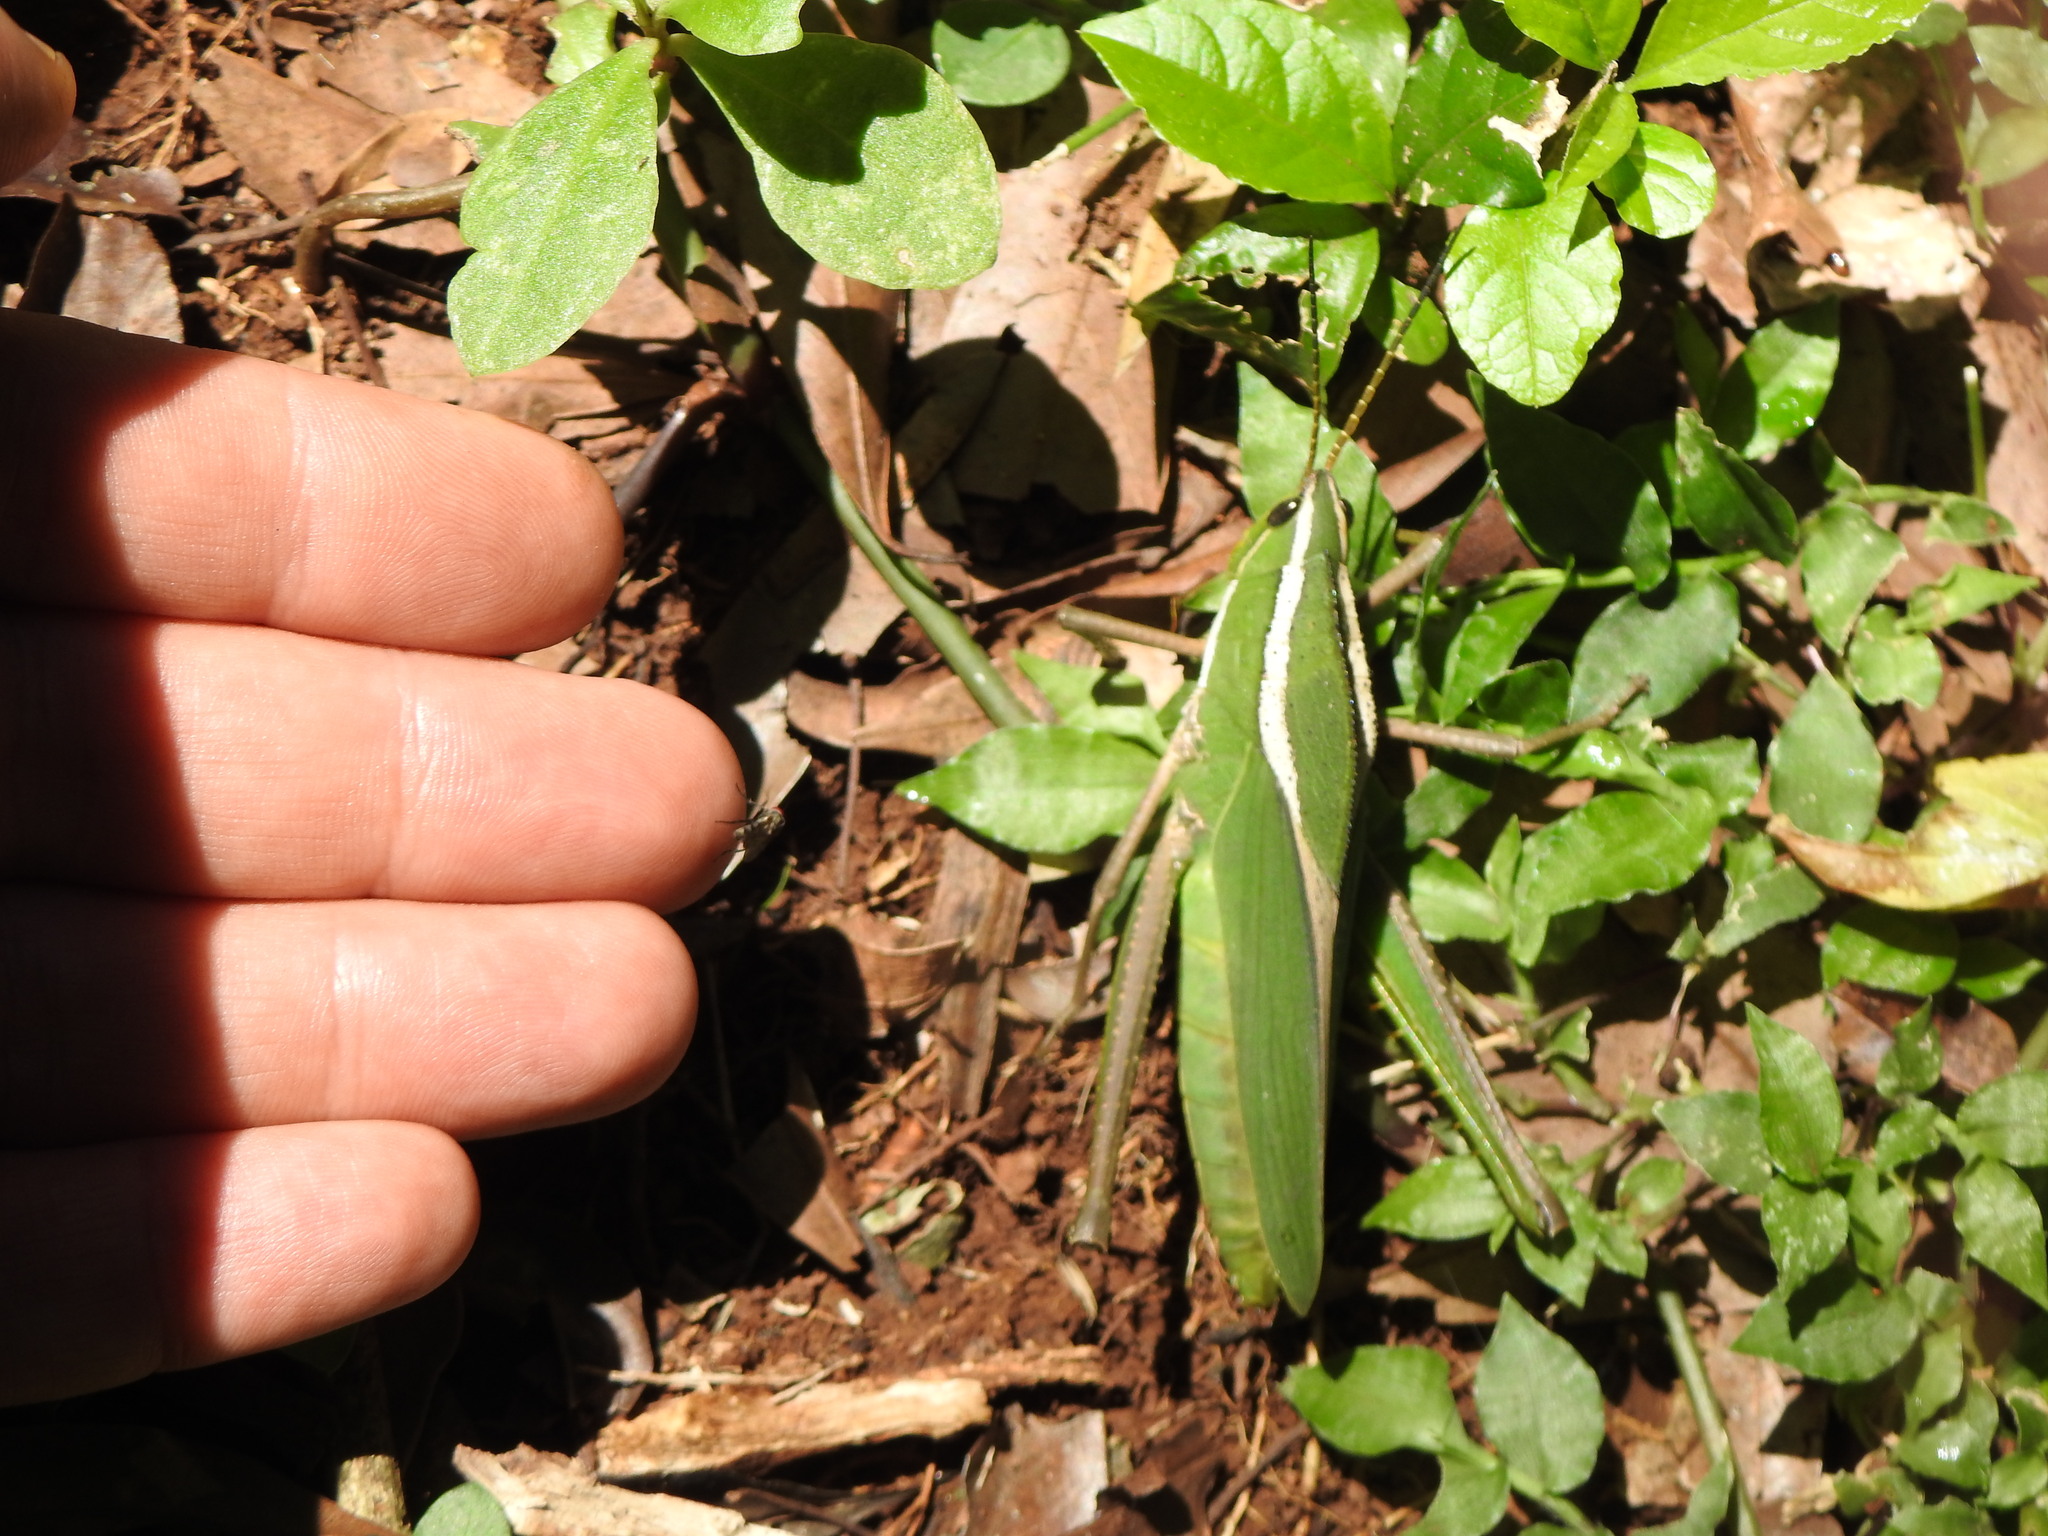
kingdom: Animalia
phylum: Arthropoda
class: Insecta
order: Orthoptera
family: Romaleidae
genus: Prionolopha
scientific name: Prionolopha serrata
